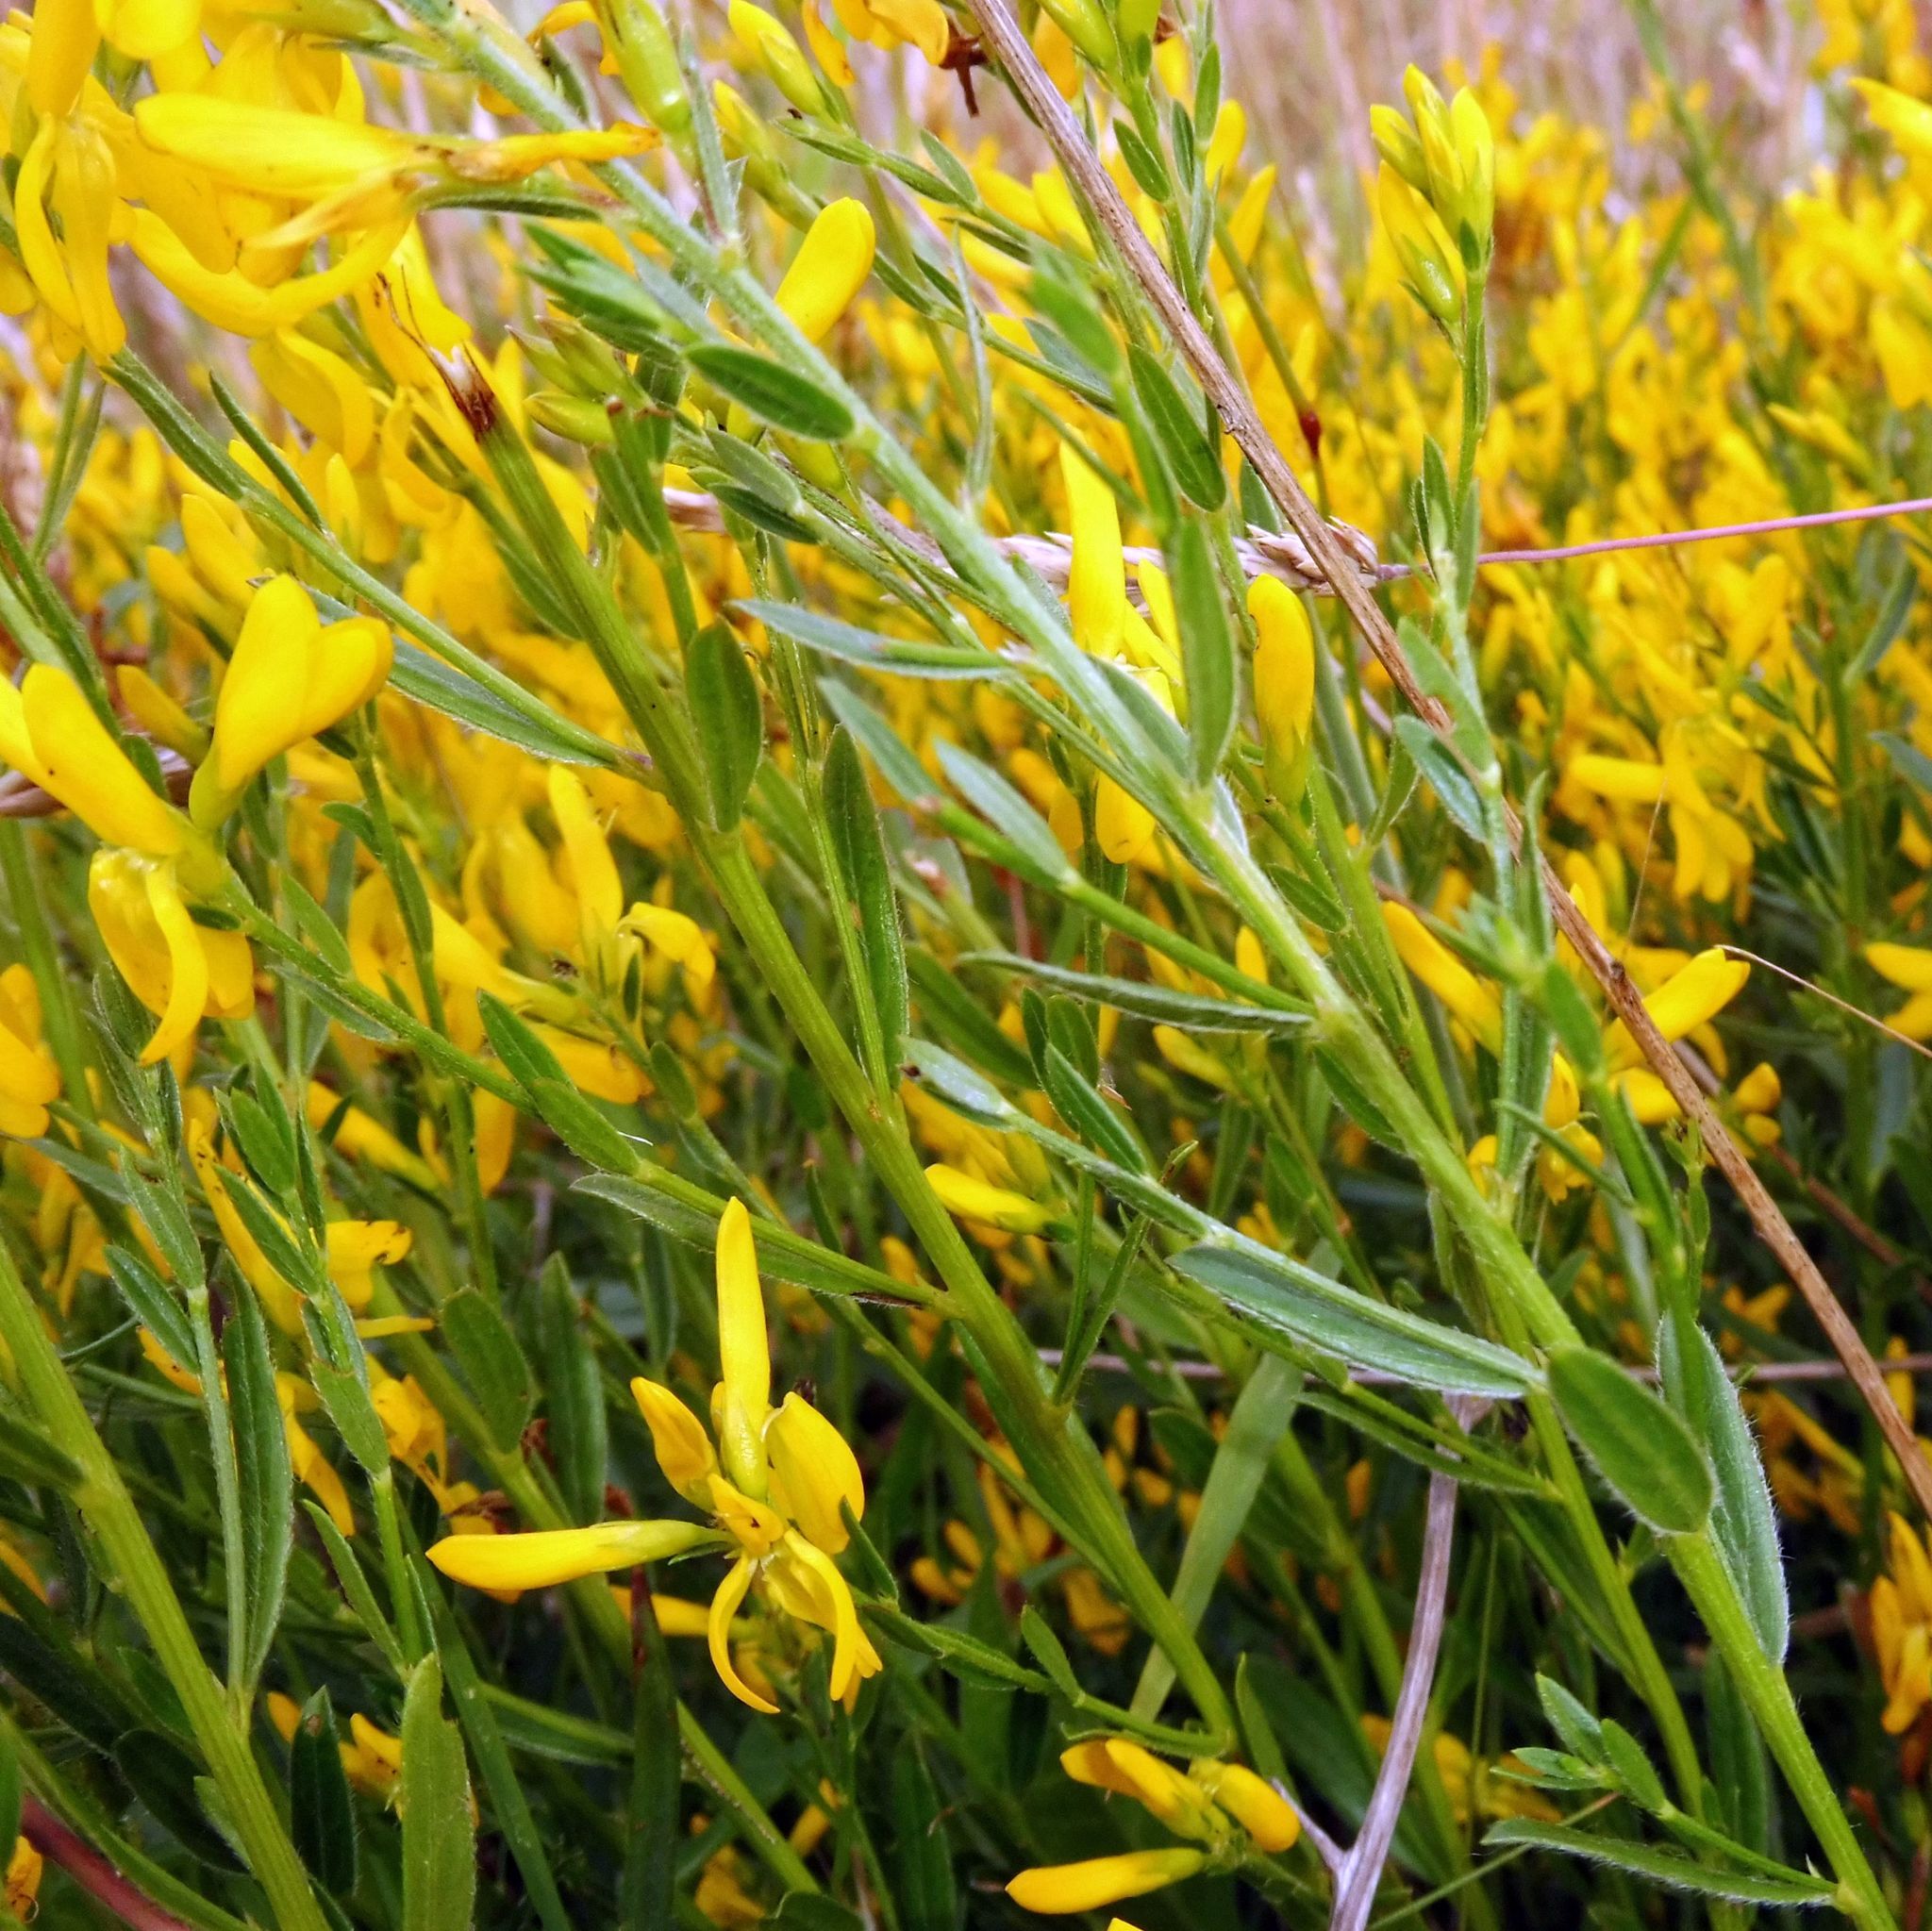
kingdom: Plantae
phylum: Tracheophyta
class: Magnoliopsida
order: Fabales
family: Fabaceae
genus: Genista
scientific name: Genista tinctoria
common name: Dyer's greenweed
